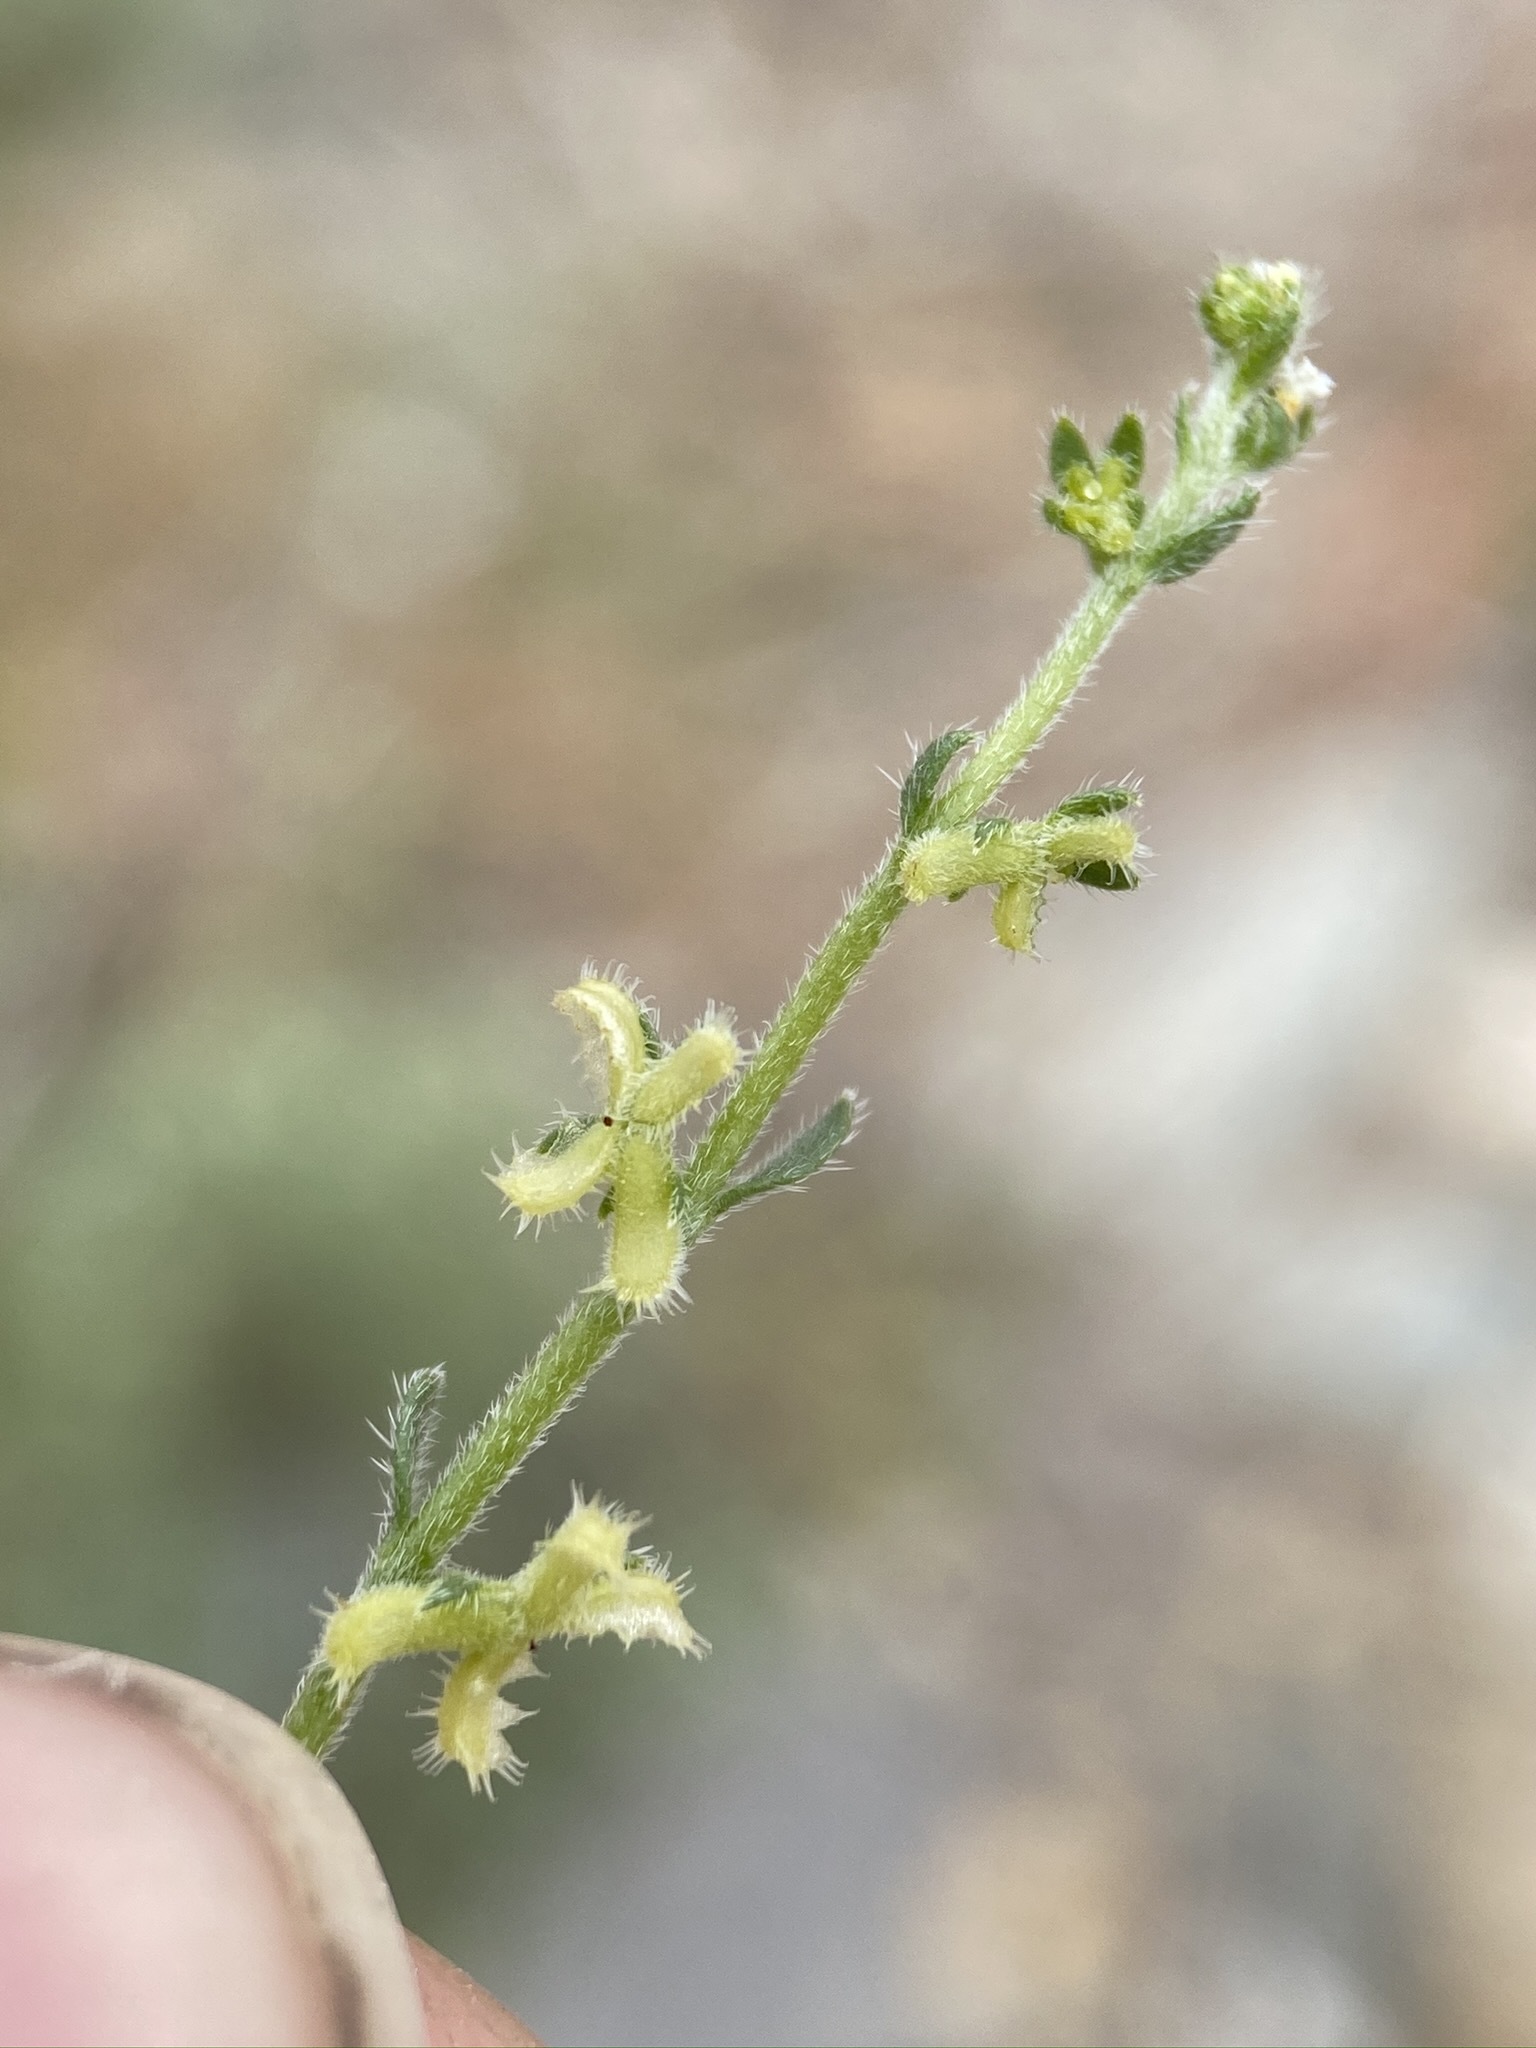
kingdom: Plantae
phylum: Tracheophyta
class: Magnoliopsida
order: Boraginales
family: Boraginaceae
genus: Pectocarya
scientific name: Pectocarya heterocarpa
